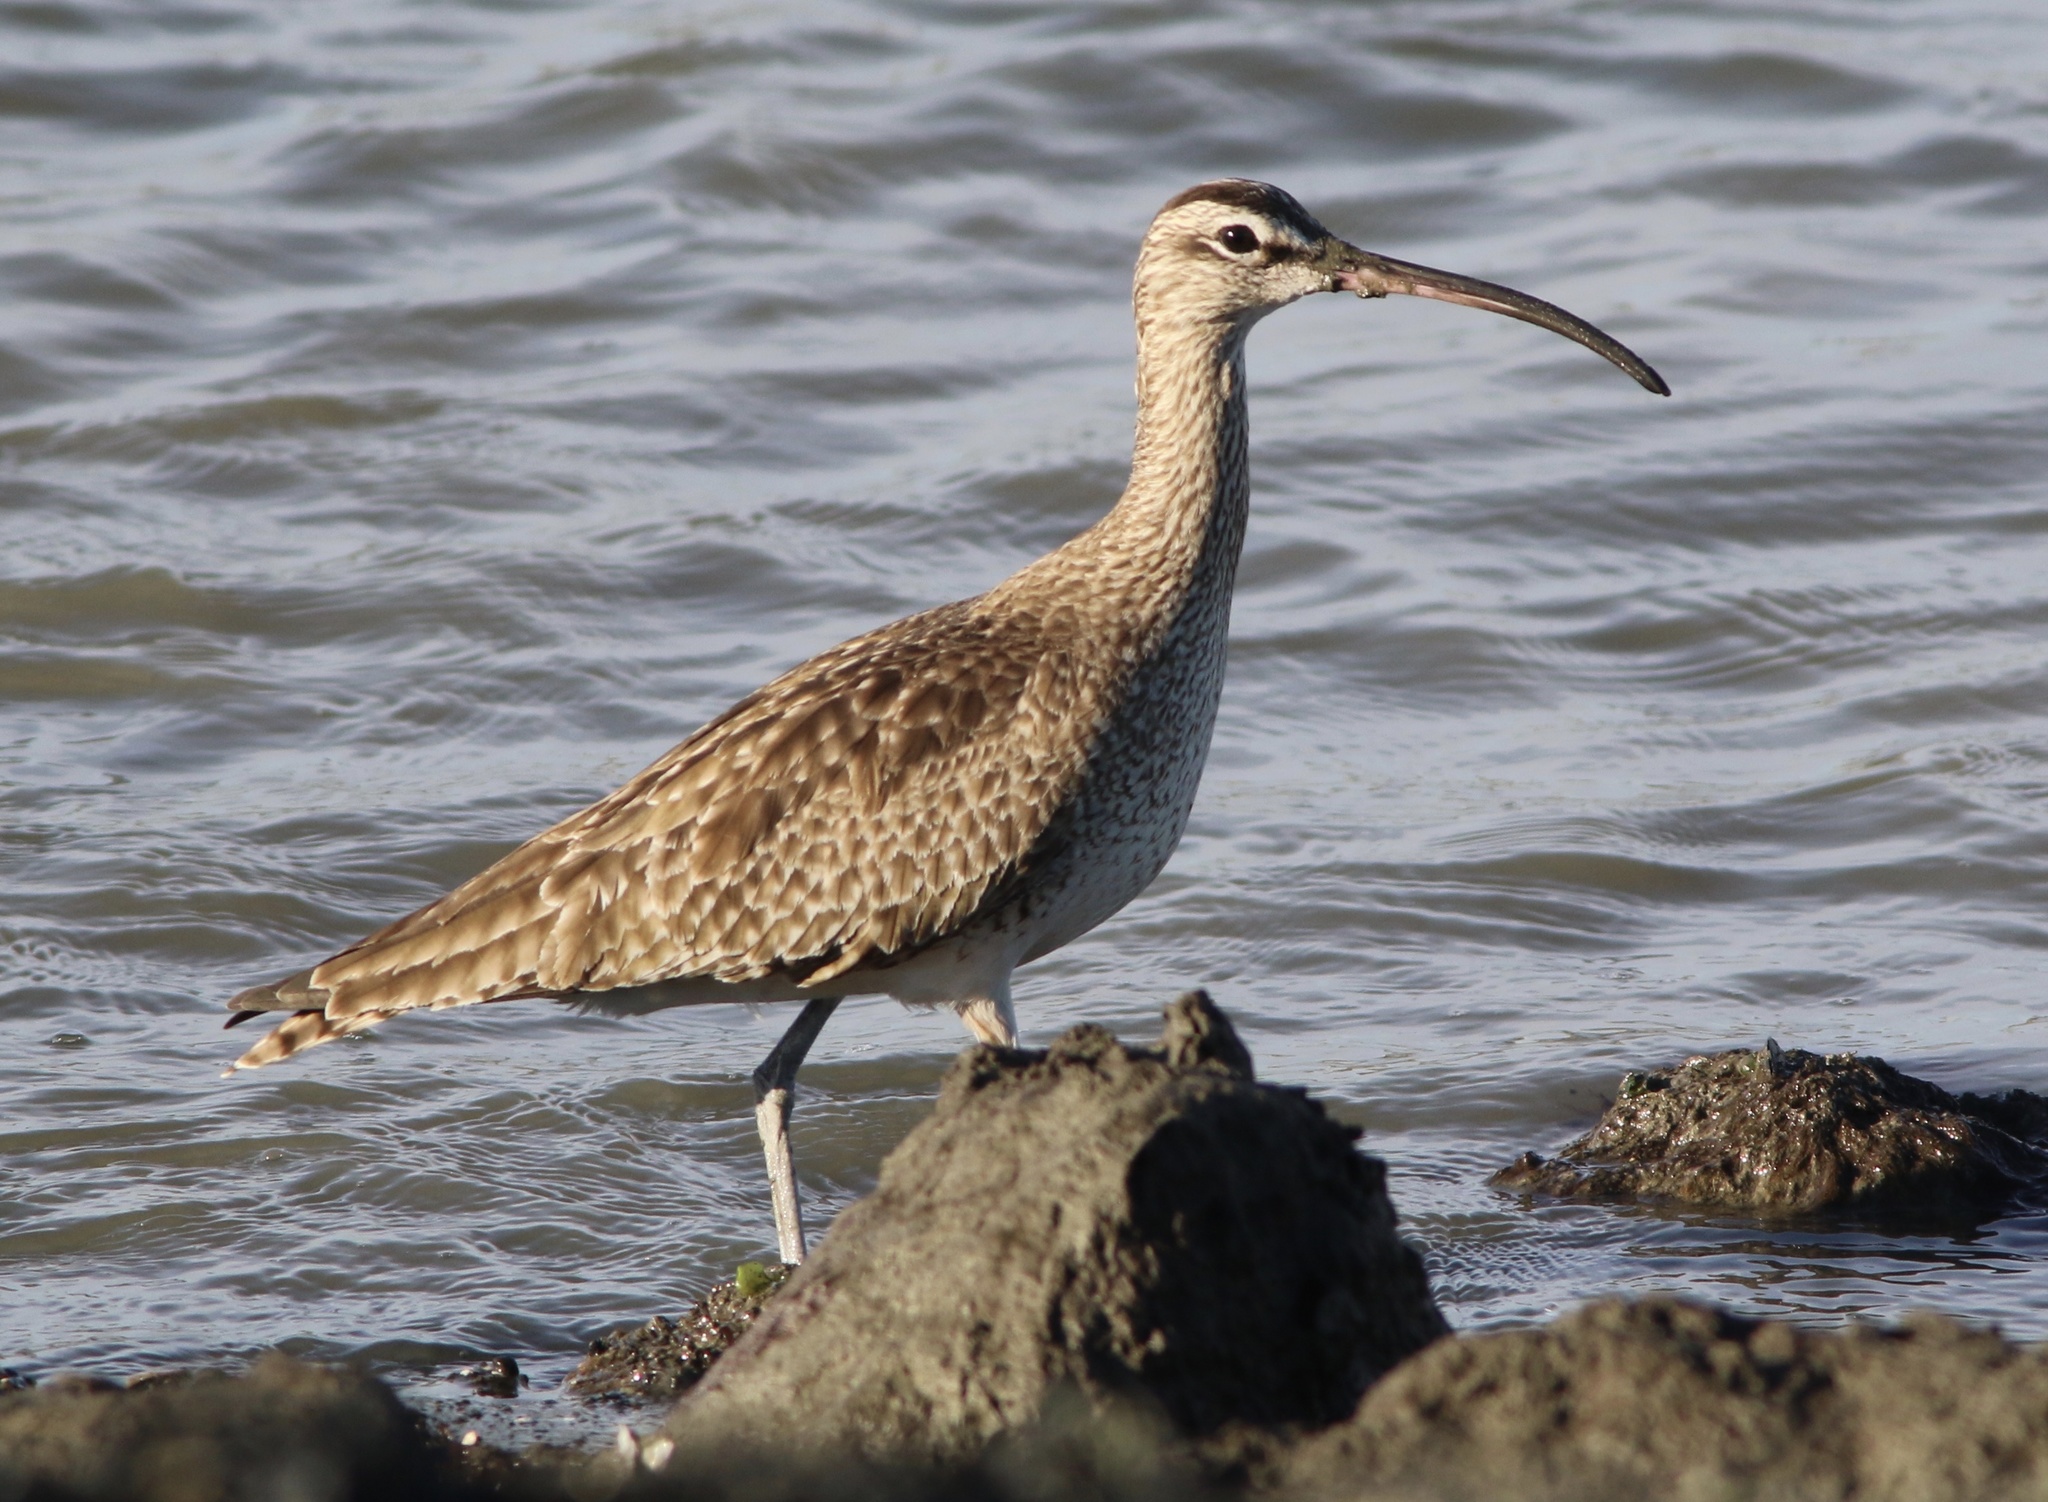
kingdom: Animalia
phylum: Chordata
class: Aves
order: Charadriiformes
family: Scolopacidae
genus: Numenius
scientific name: Numenius phaeopus
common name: Whimbrel
